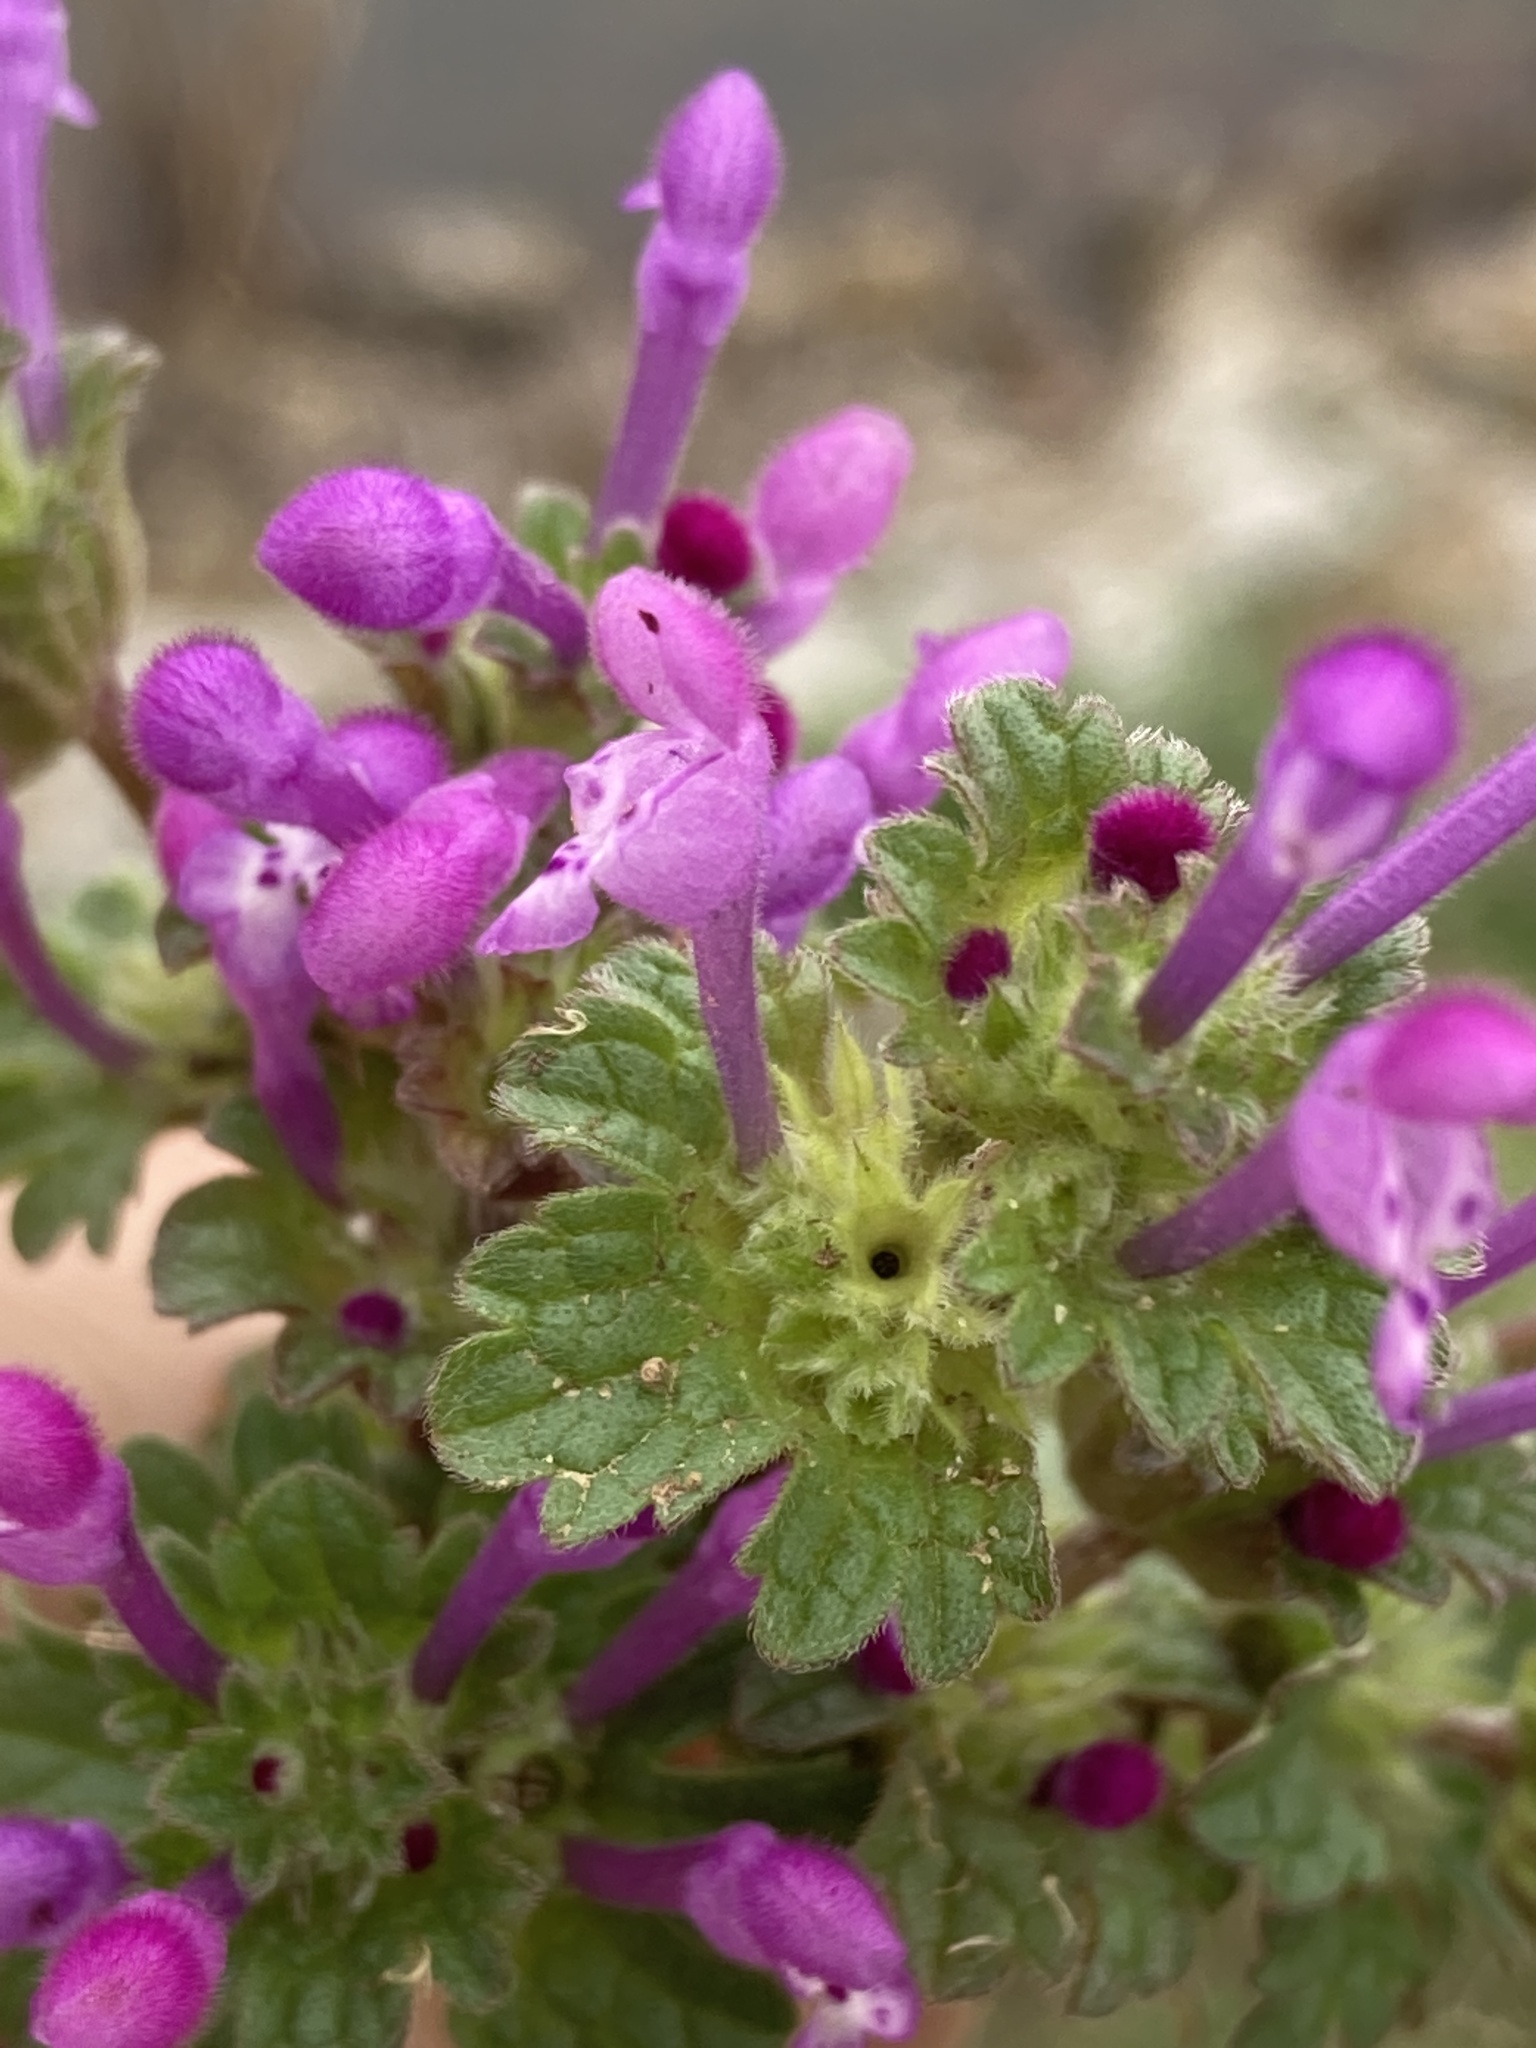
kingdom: Plantae
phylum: Tracheophyta
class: Magnoliopsida
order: Lamiales
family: Lamiaceae
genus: Lamium
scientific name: Lamium amplexicaule
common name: Henbit dead-nettle
